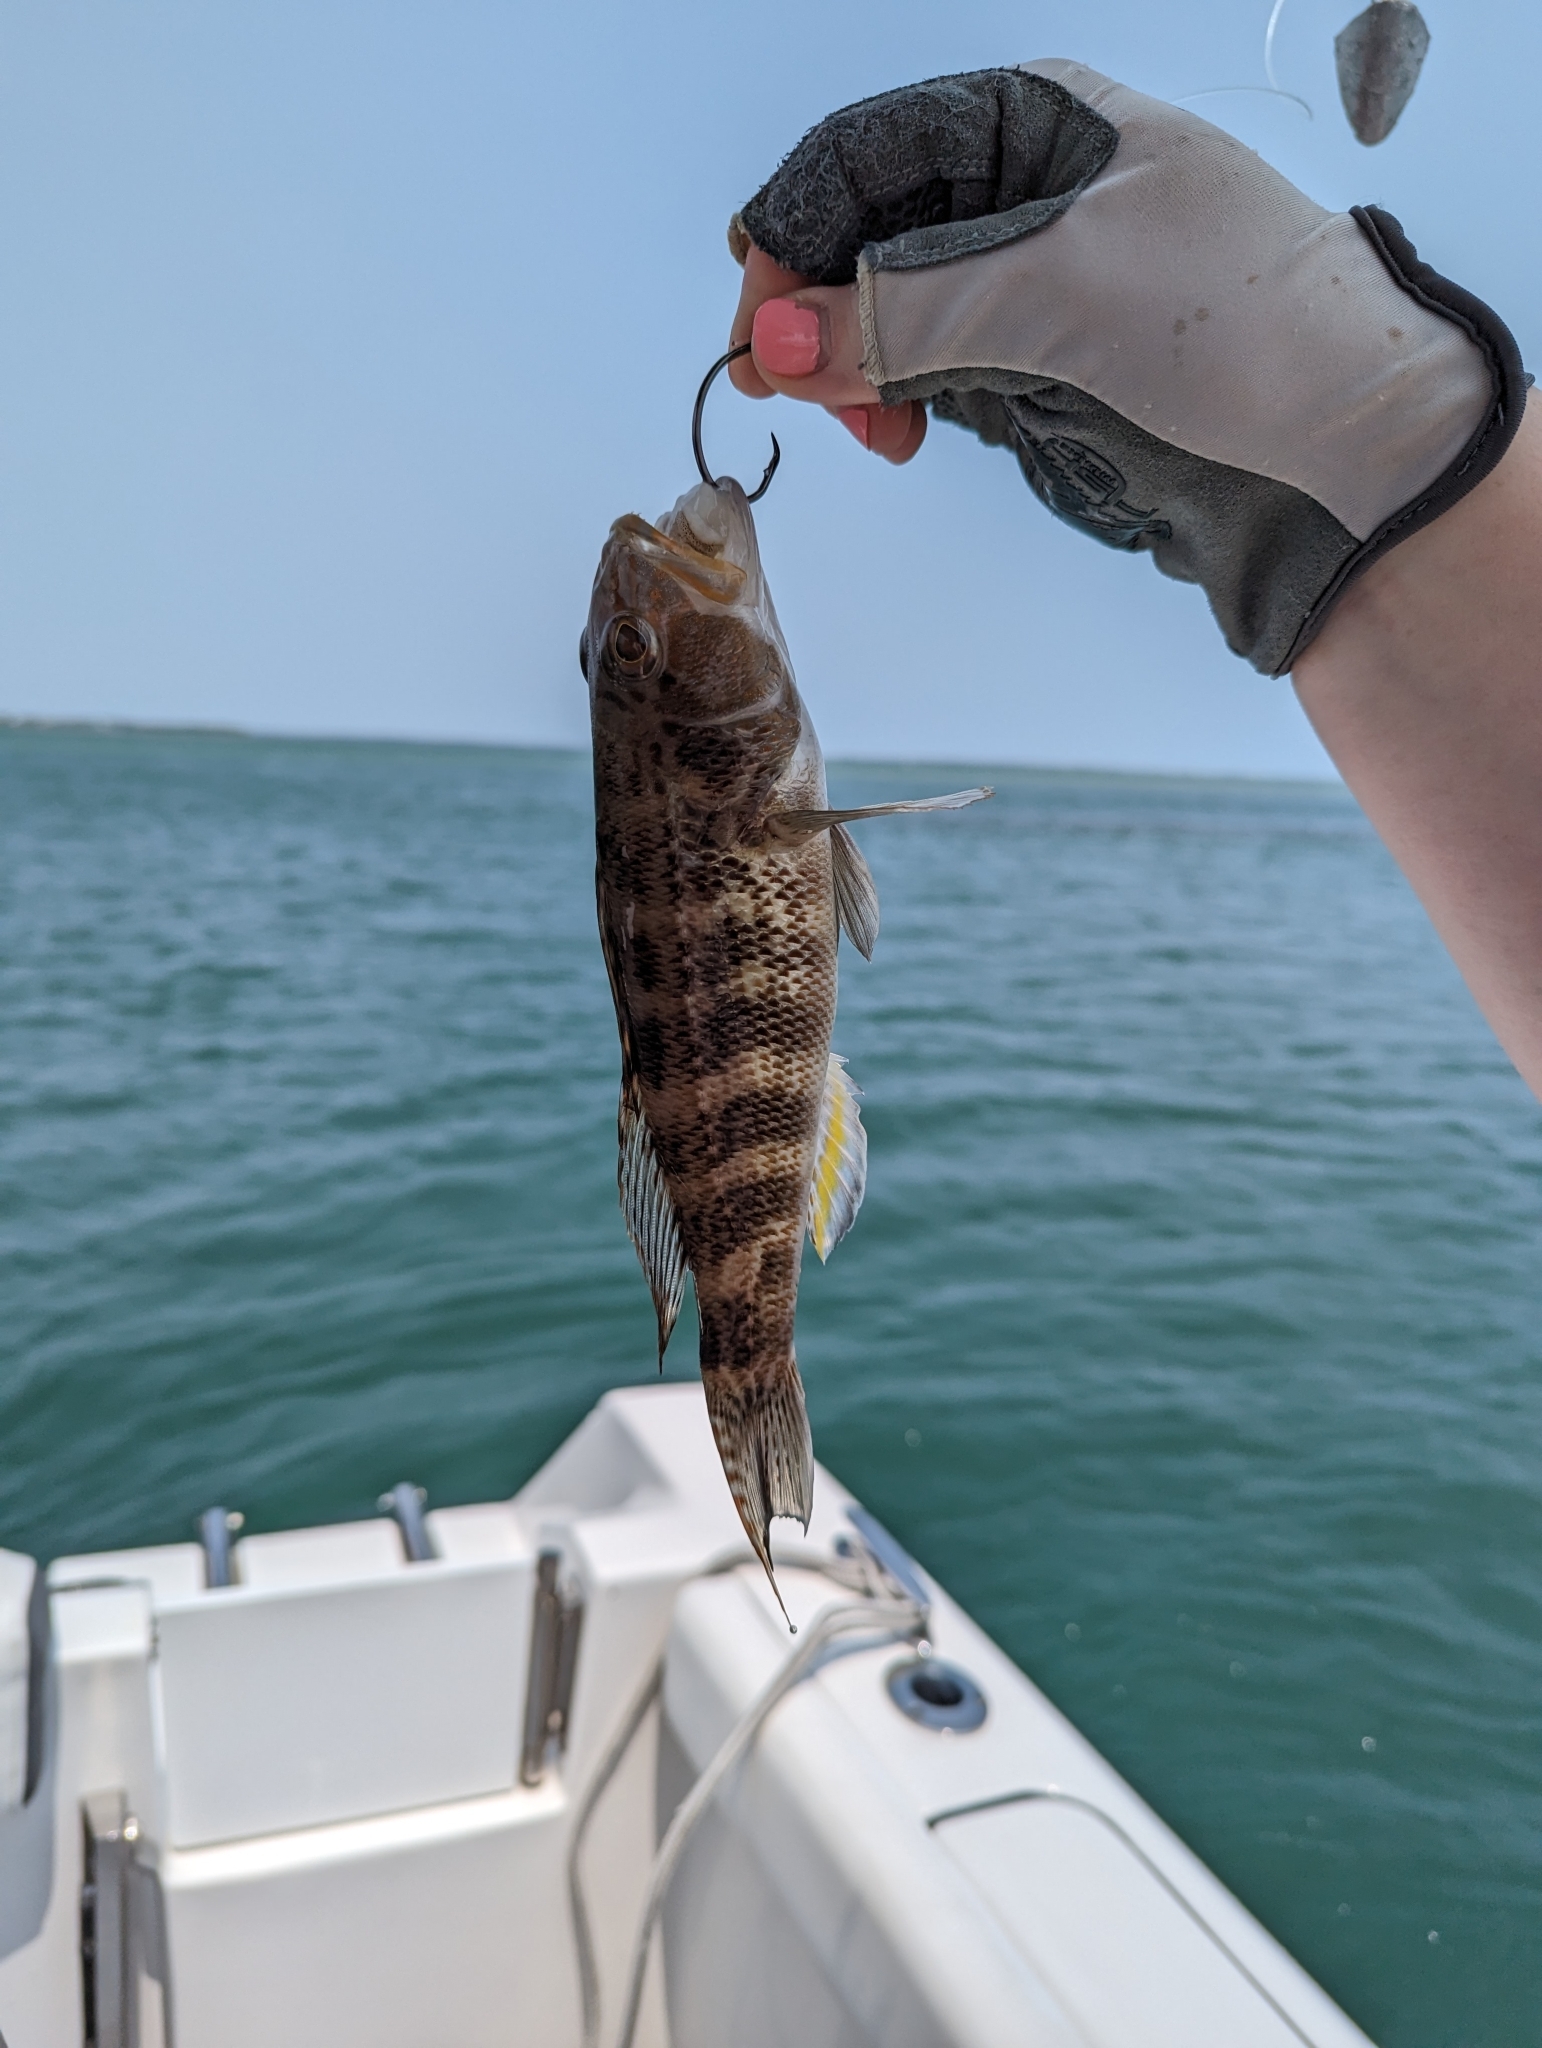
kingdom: Animalia
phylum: Chordata
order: Perciformes
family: Serranidae
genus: Centropristis
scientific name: Centropristis ocyurus
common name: Bank sea bass
